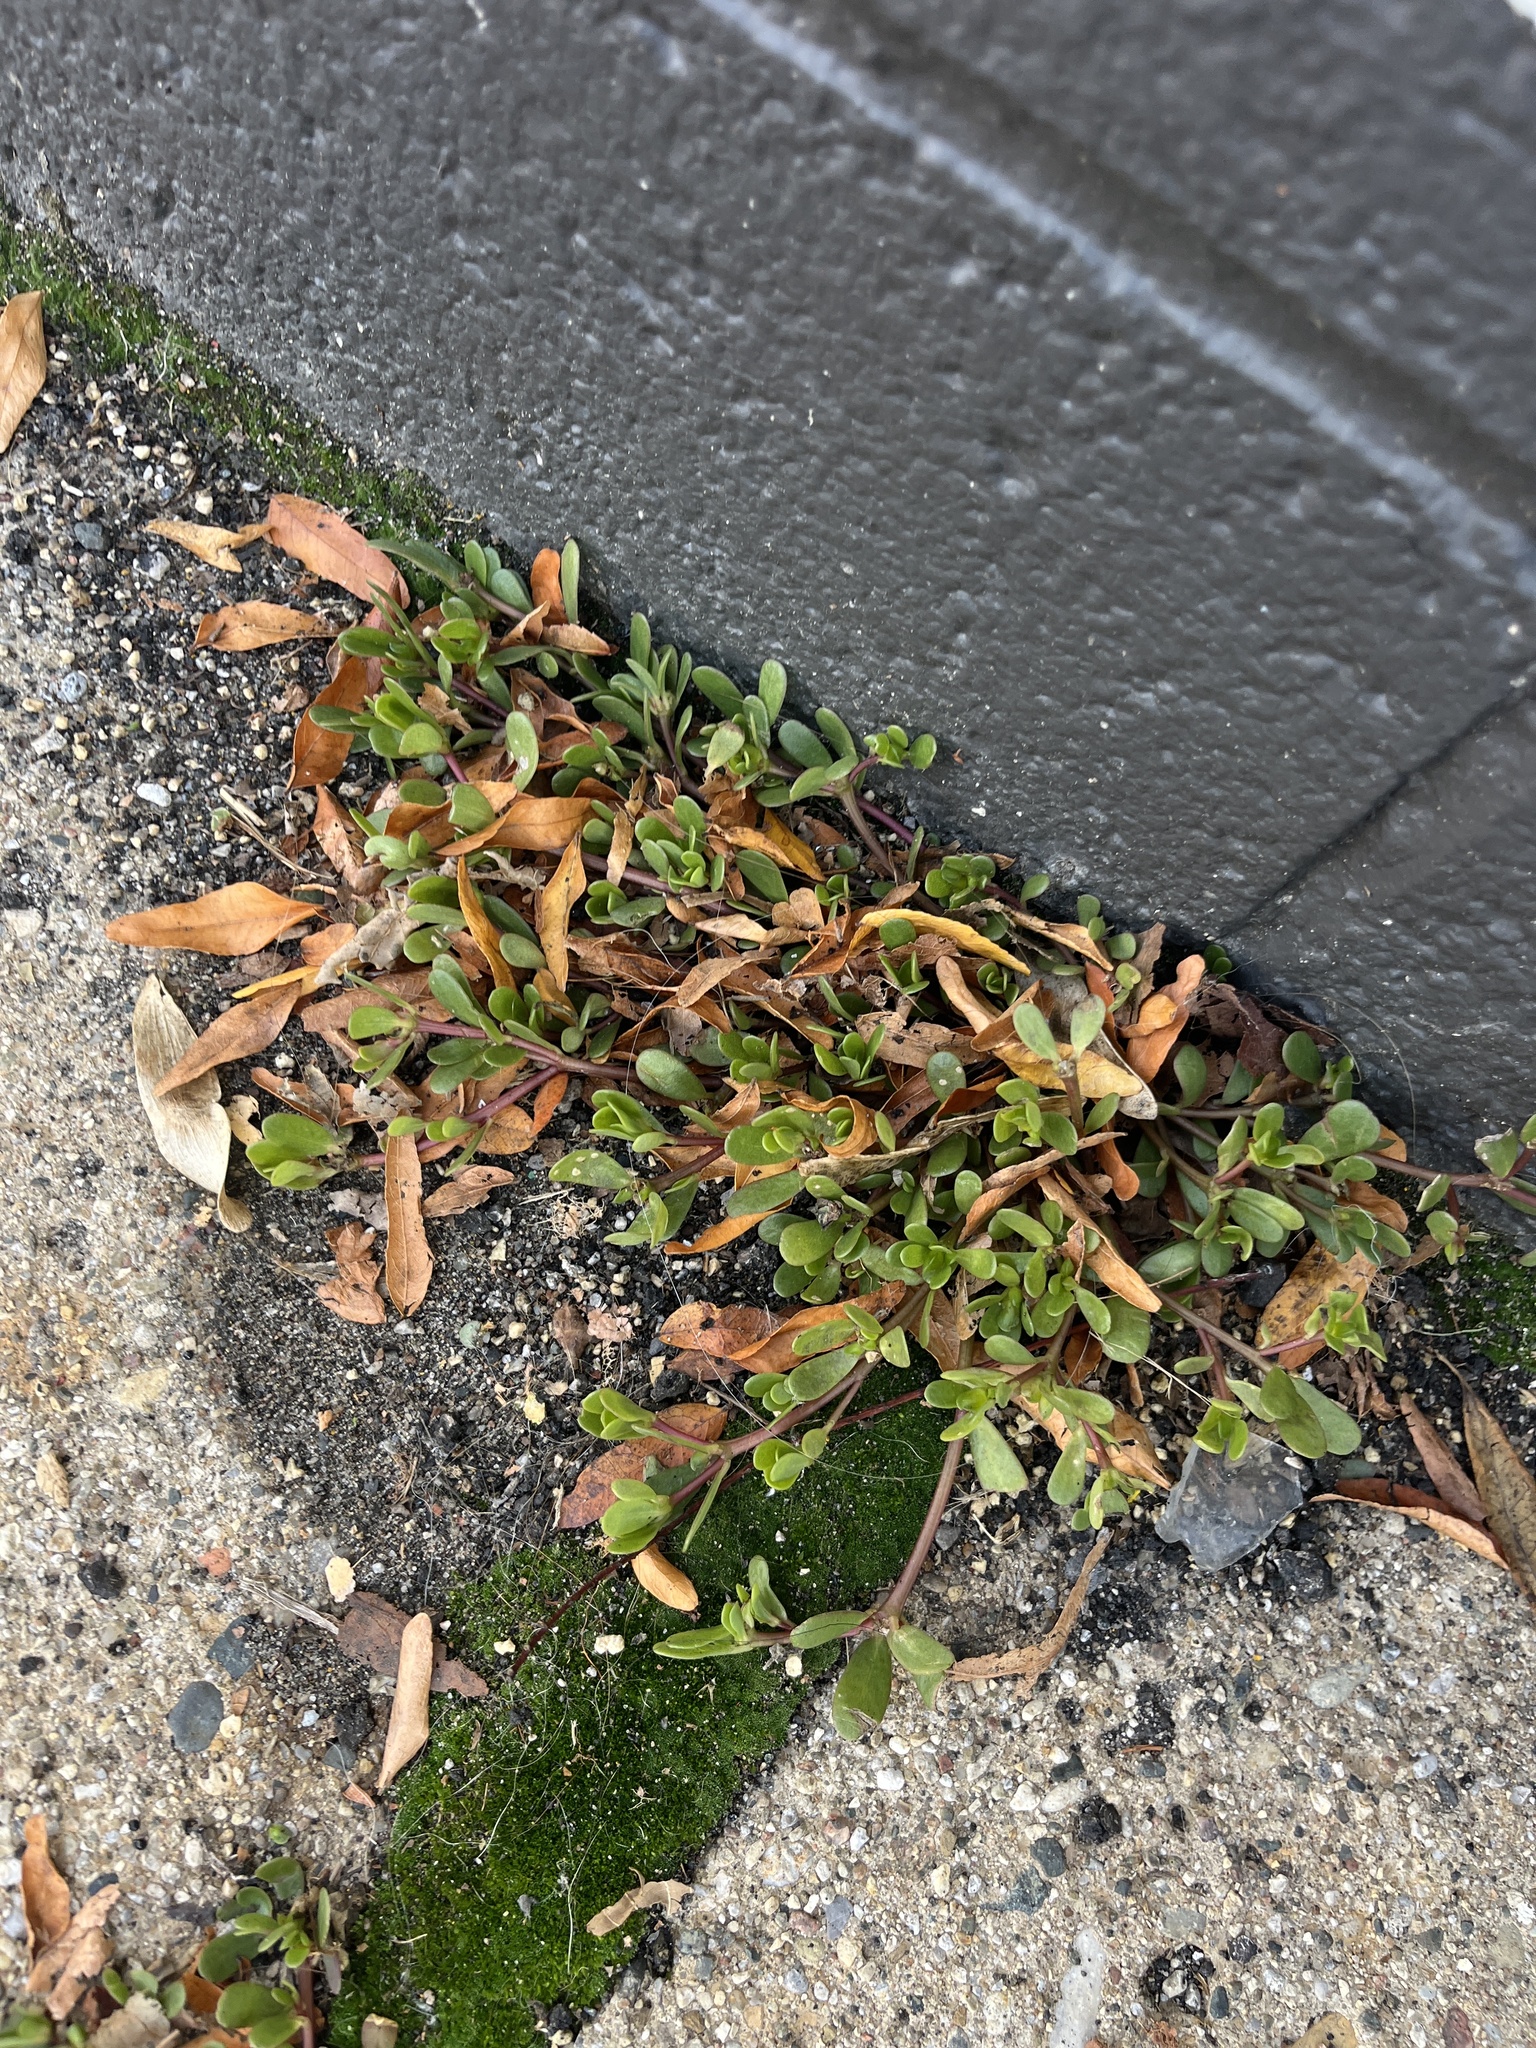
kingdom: Plantae
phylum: Tracheophyta
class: Magnoliopsida
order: Caryophyllales
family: Portulacaceae
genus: Portulaca
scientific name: Portulaca oleracea
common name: Common purslane
